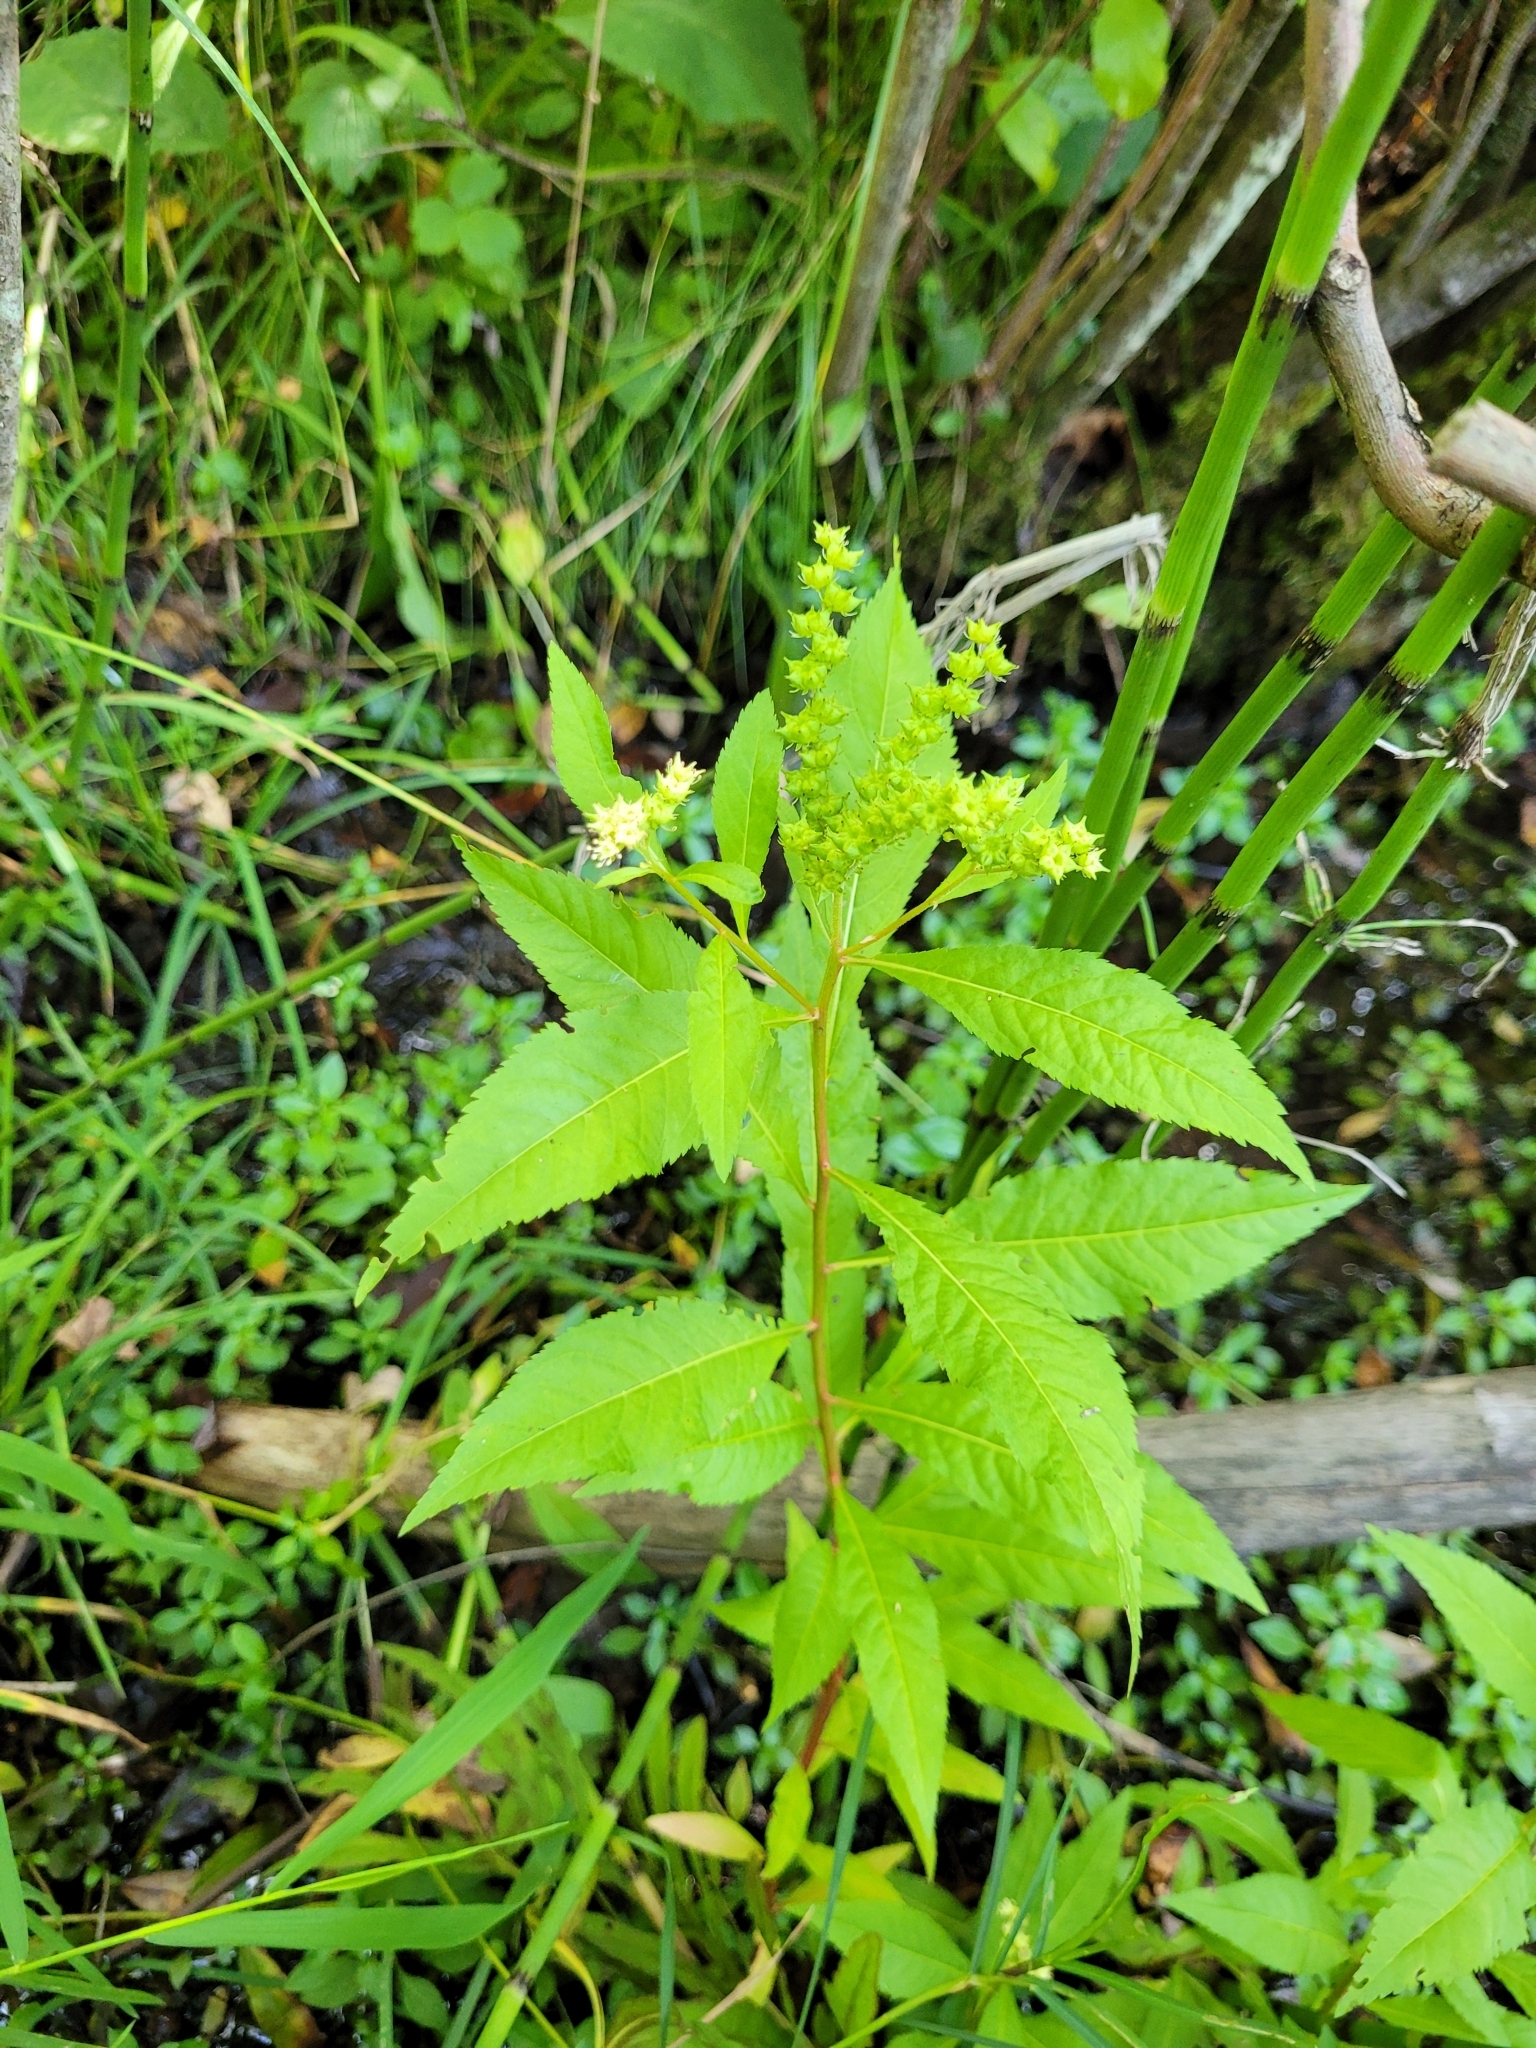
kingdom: Plantae
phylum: Tracheophyta
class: Magnoliopsida
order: Saxifragales
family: Penthoraceae
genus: Penthorum
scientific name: Penthorum sedoides
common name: Ditch stonecrop
